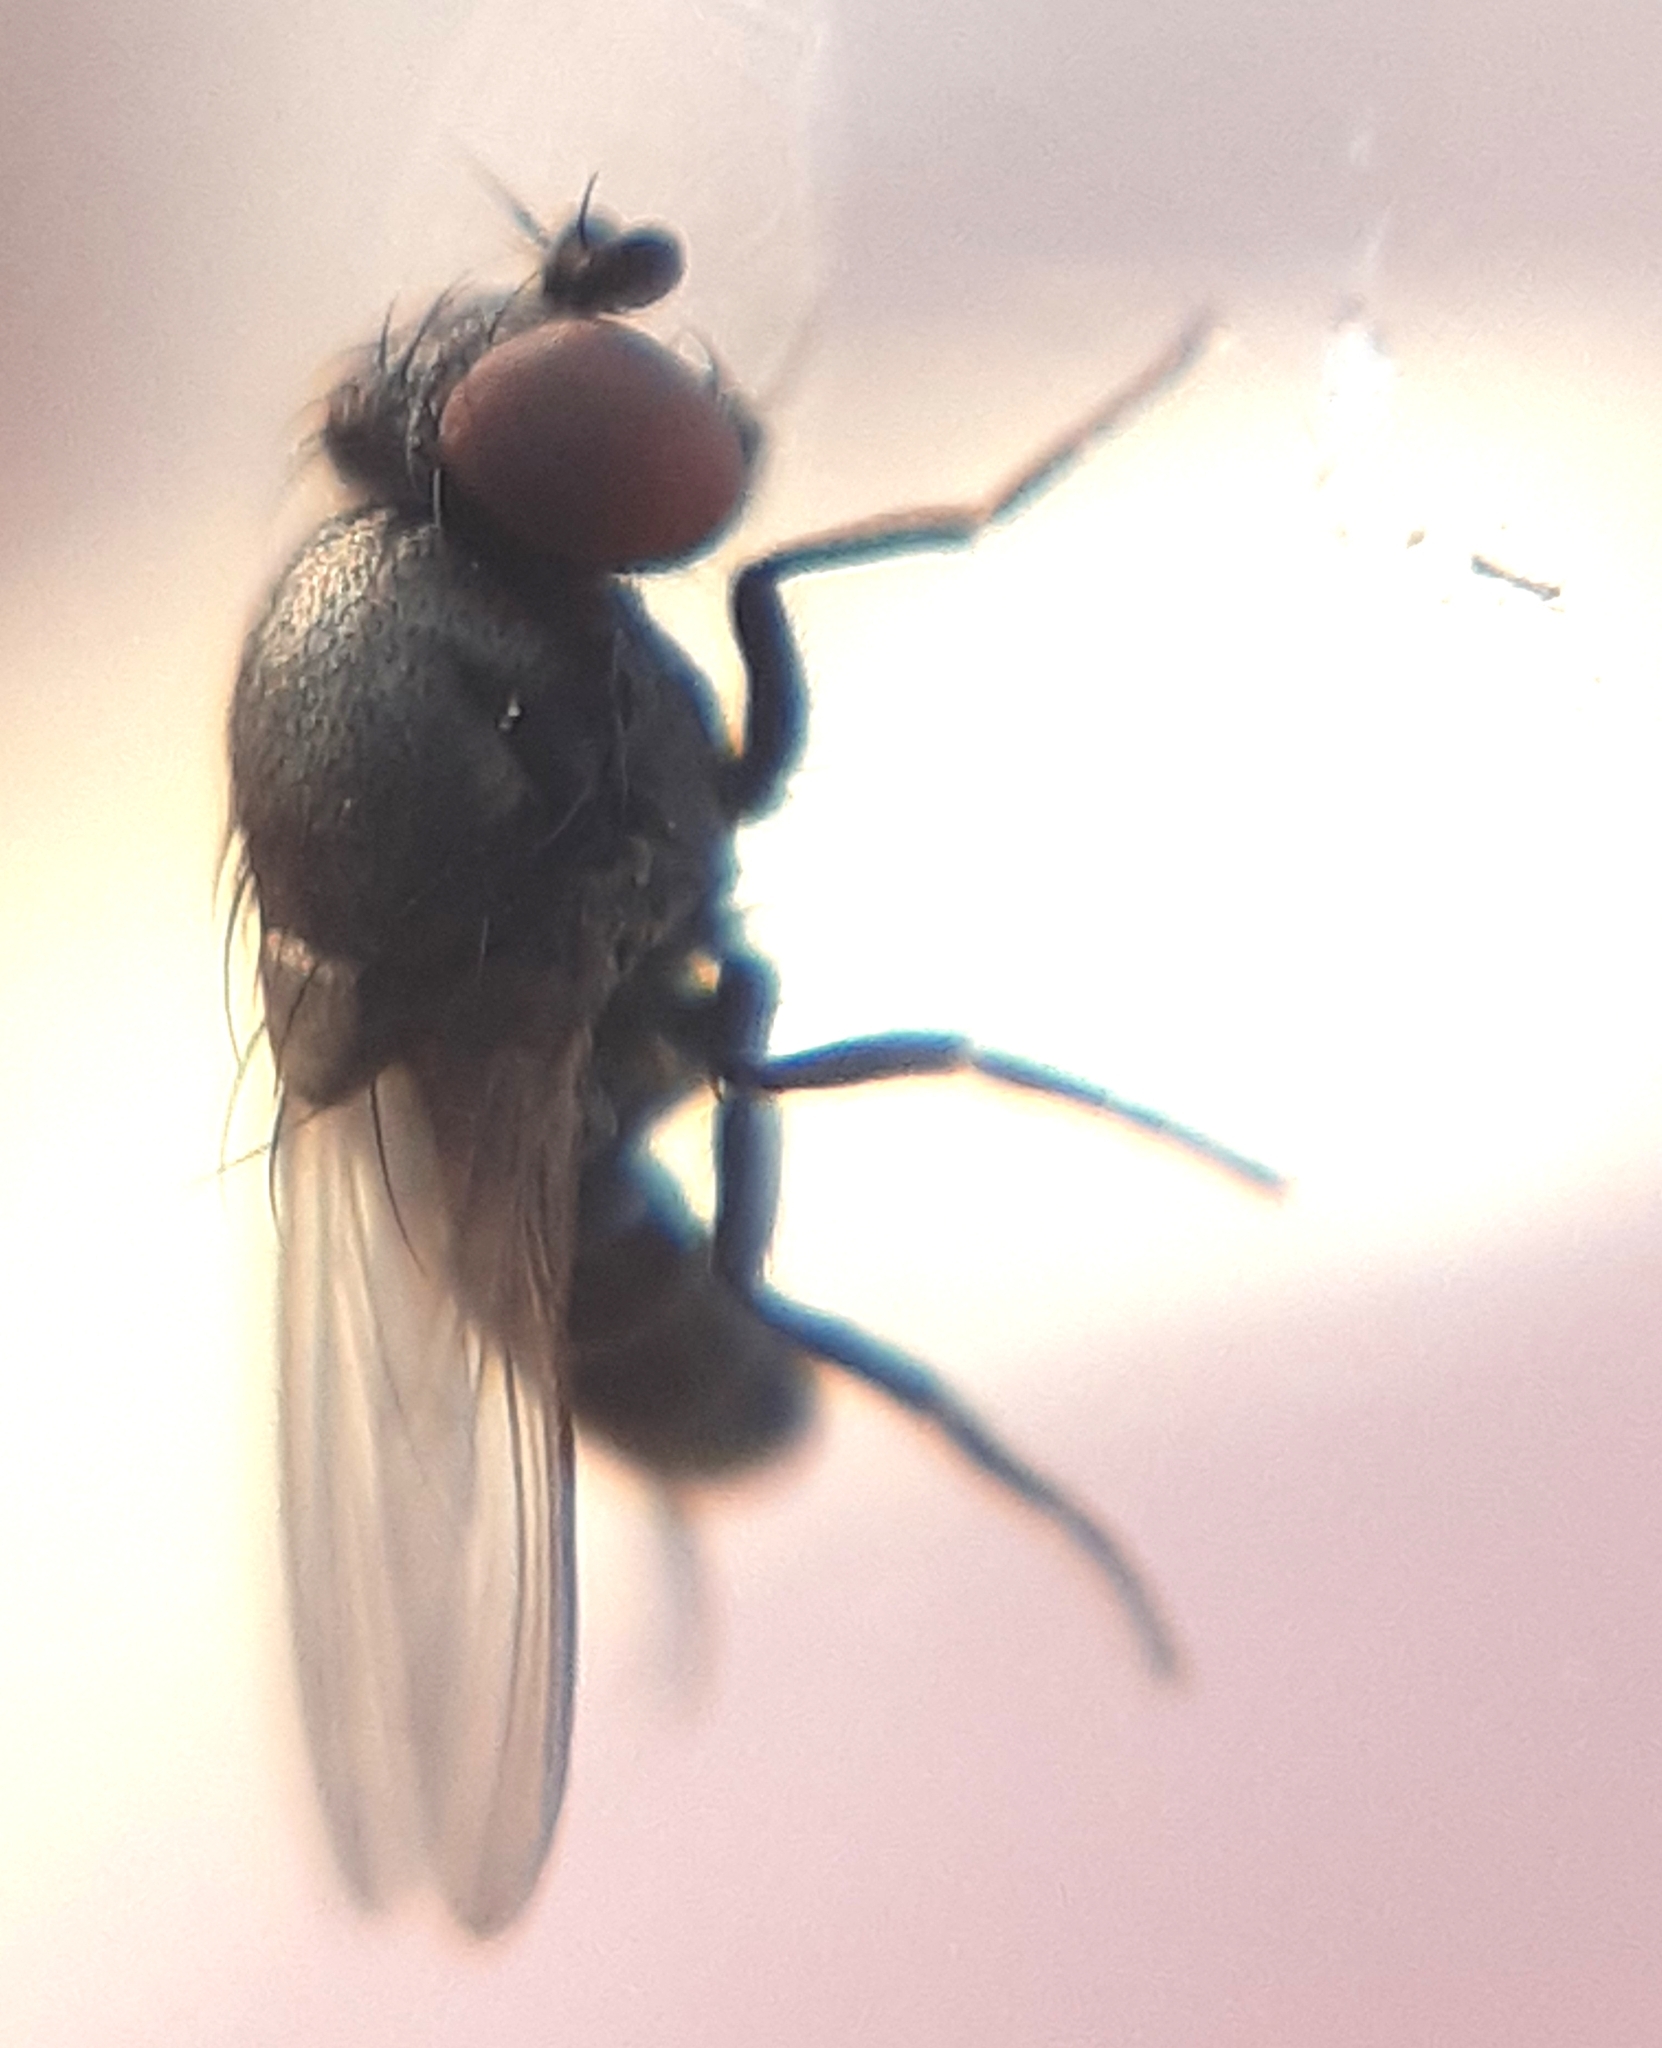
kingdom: Animalia
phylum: Arthropoda
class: Insecta
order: Diptera
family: Drosophilidae
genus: Cacoxenus
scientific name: Cacoxenus indagator
